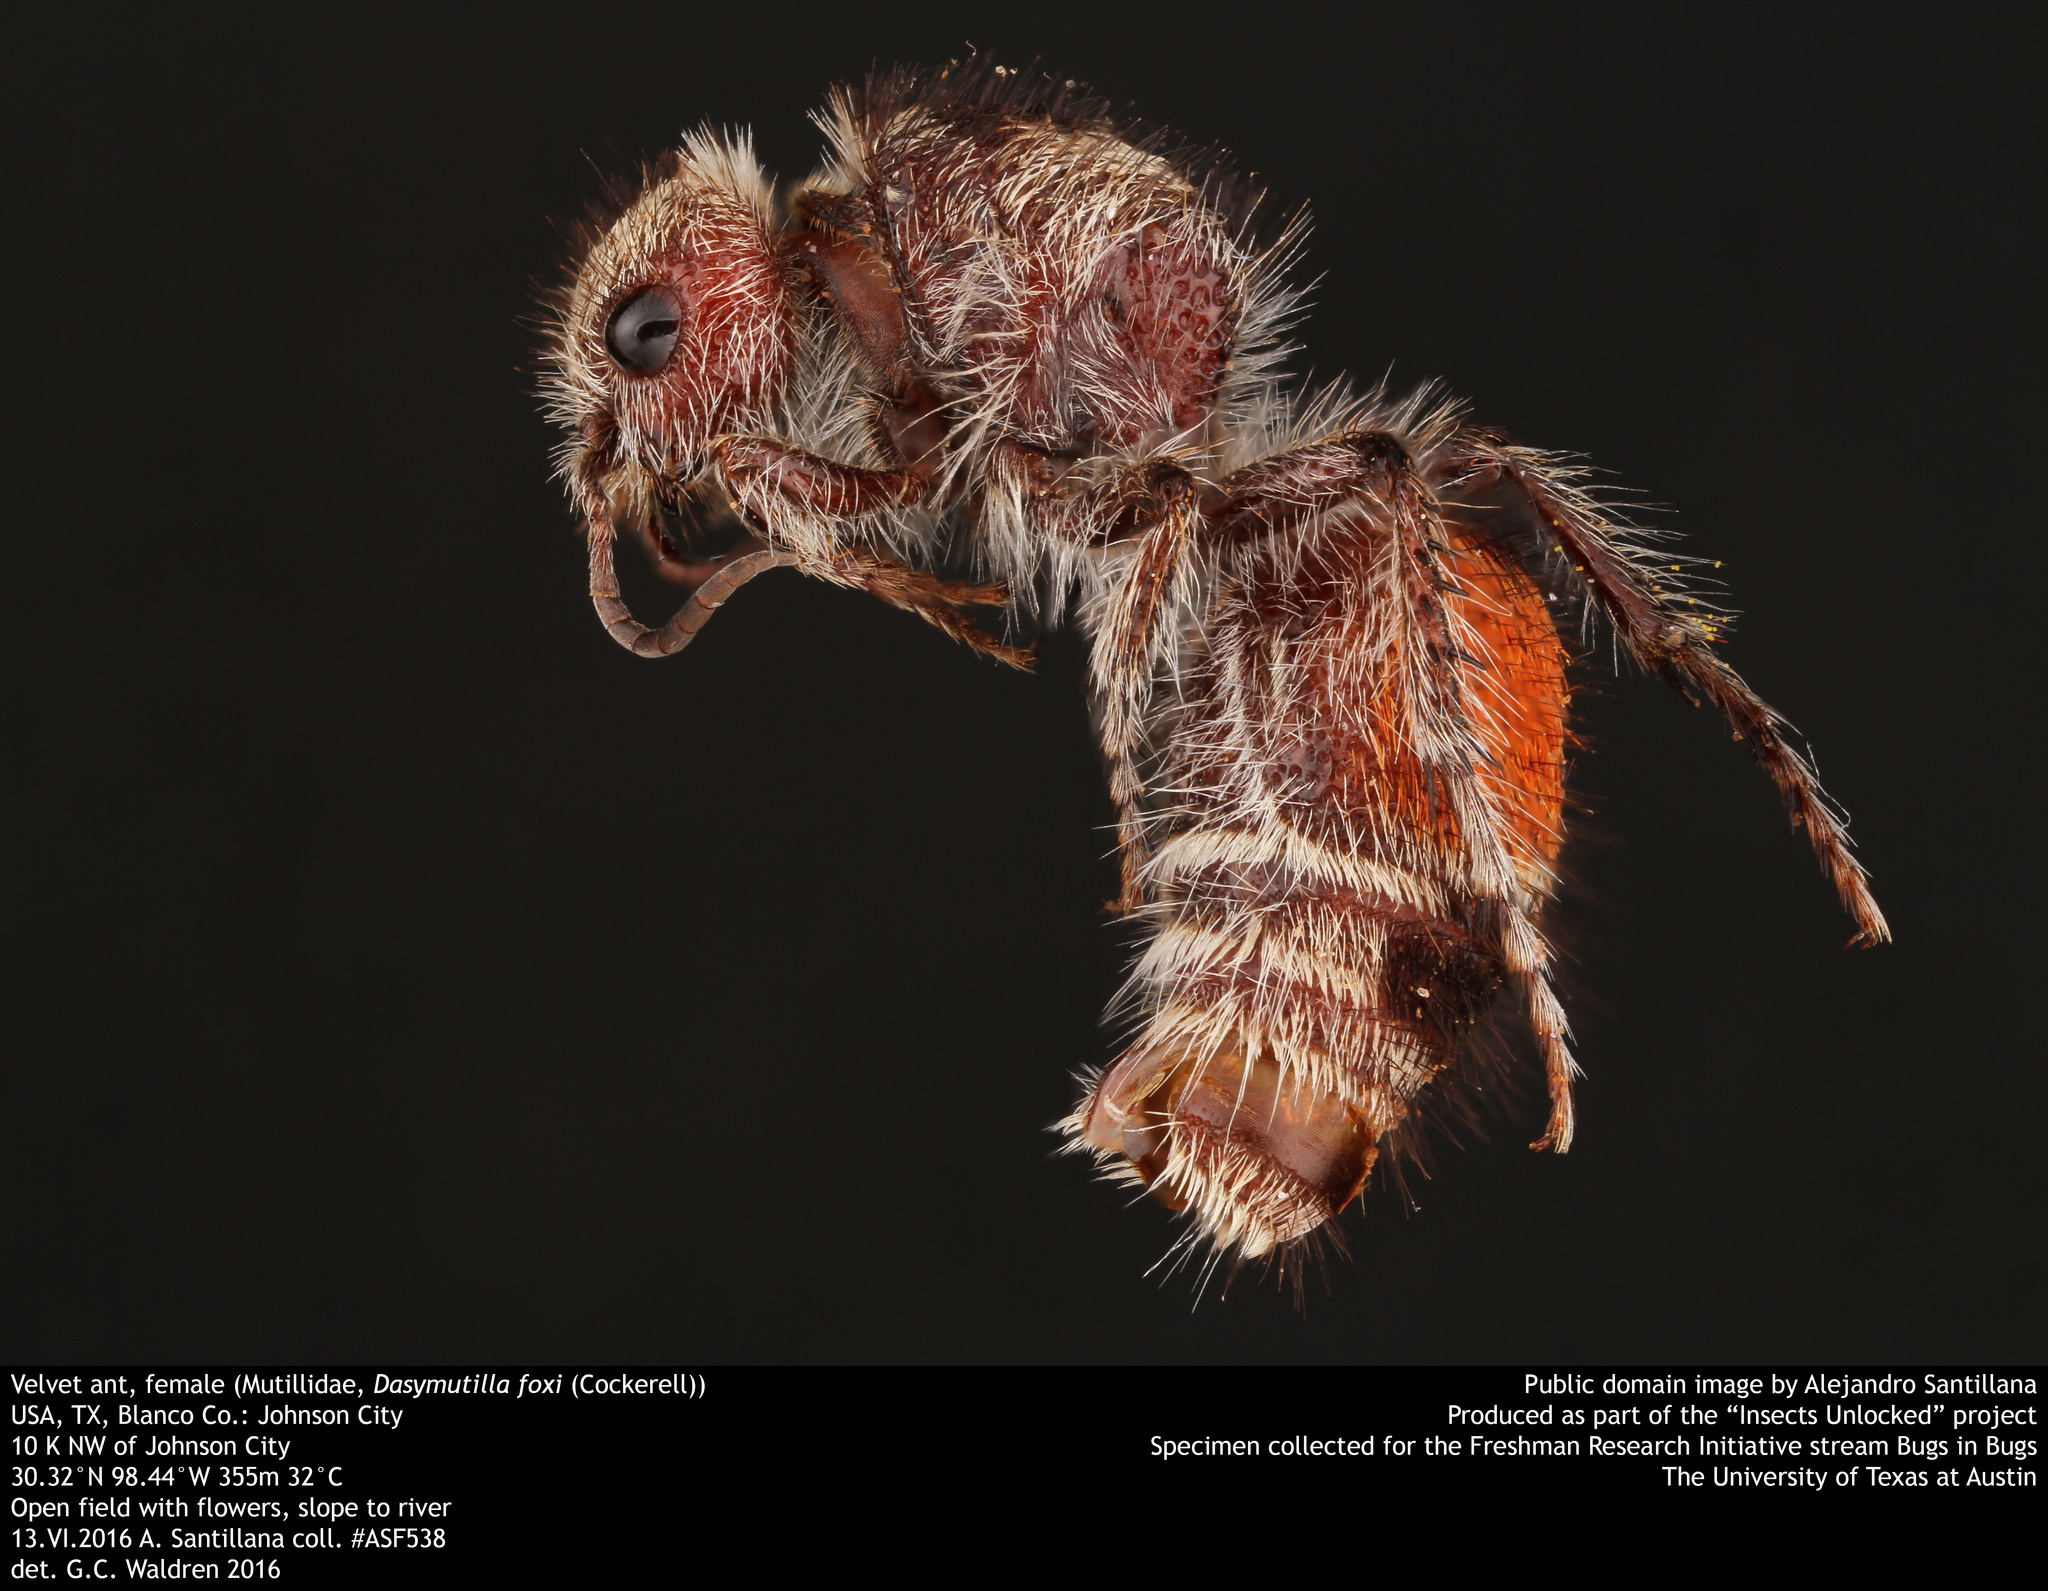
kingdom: Animalia
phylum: Arthropoda
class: Insecta
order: Hymenoptera
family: Mutillidae
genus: Dasymutilla
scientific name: Dasymutilla foxi
